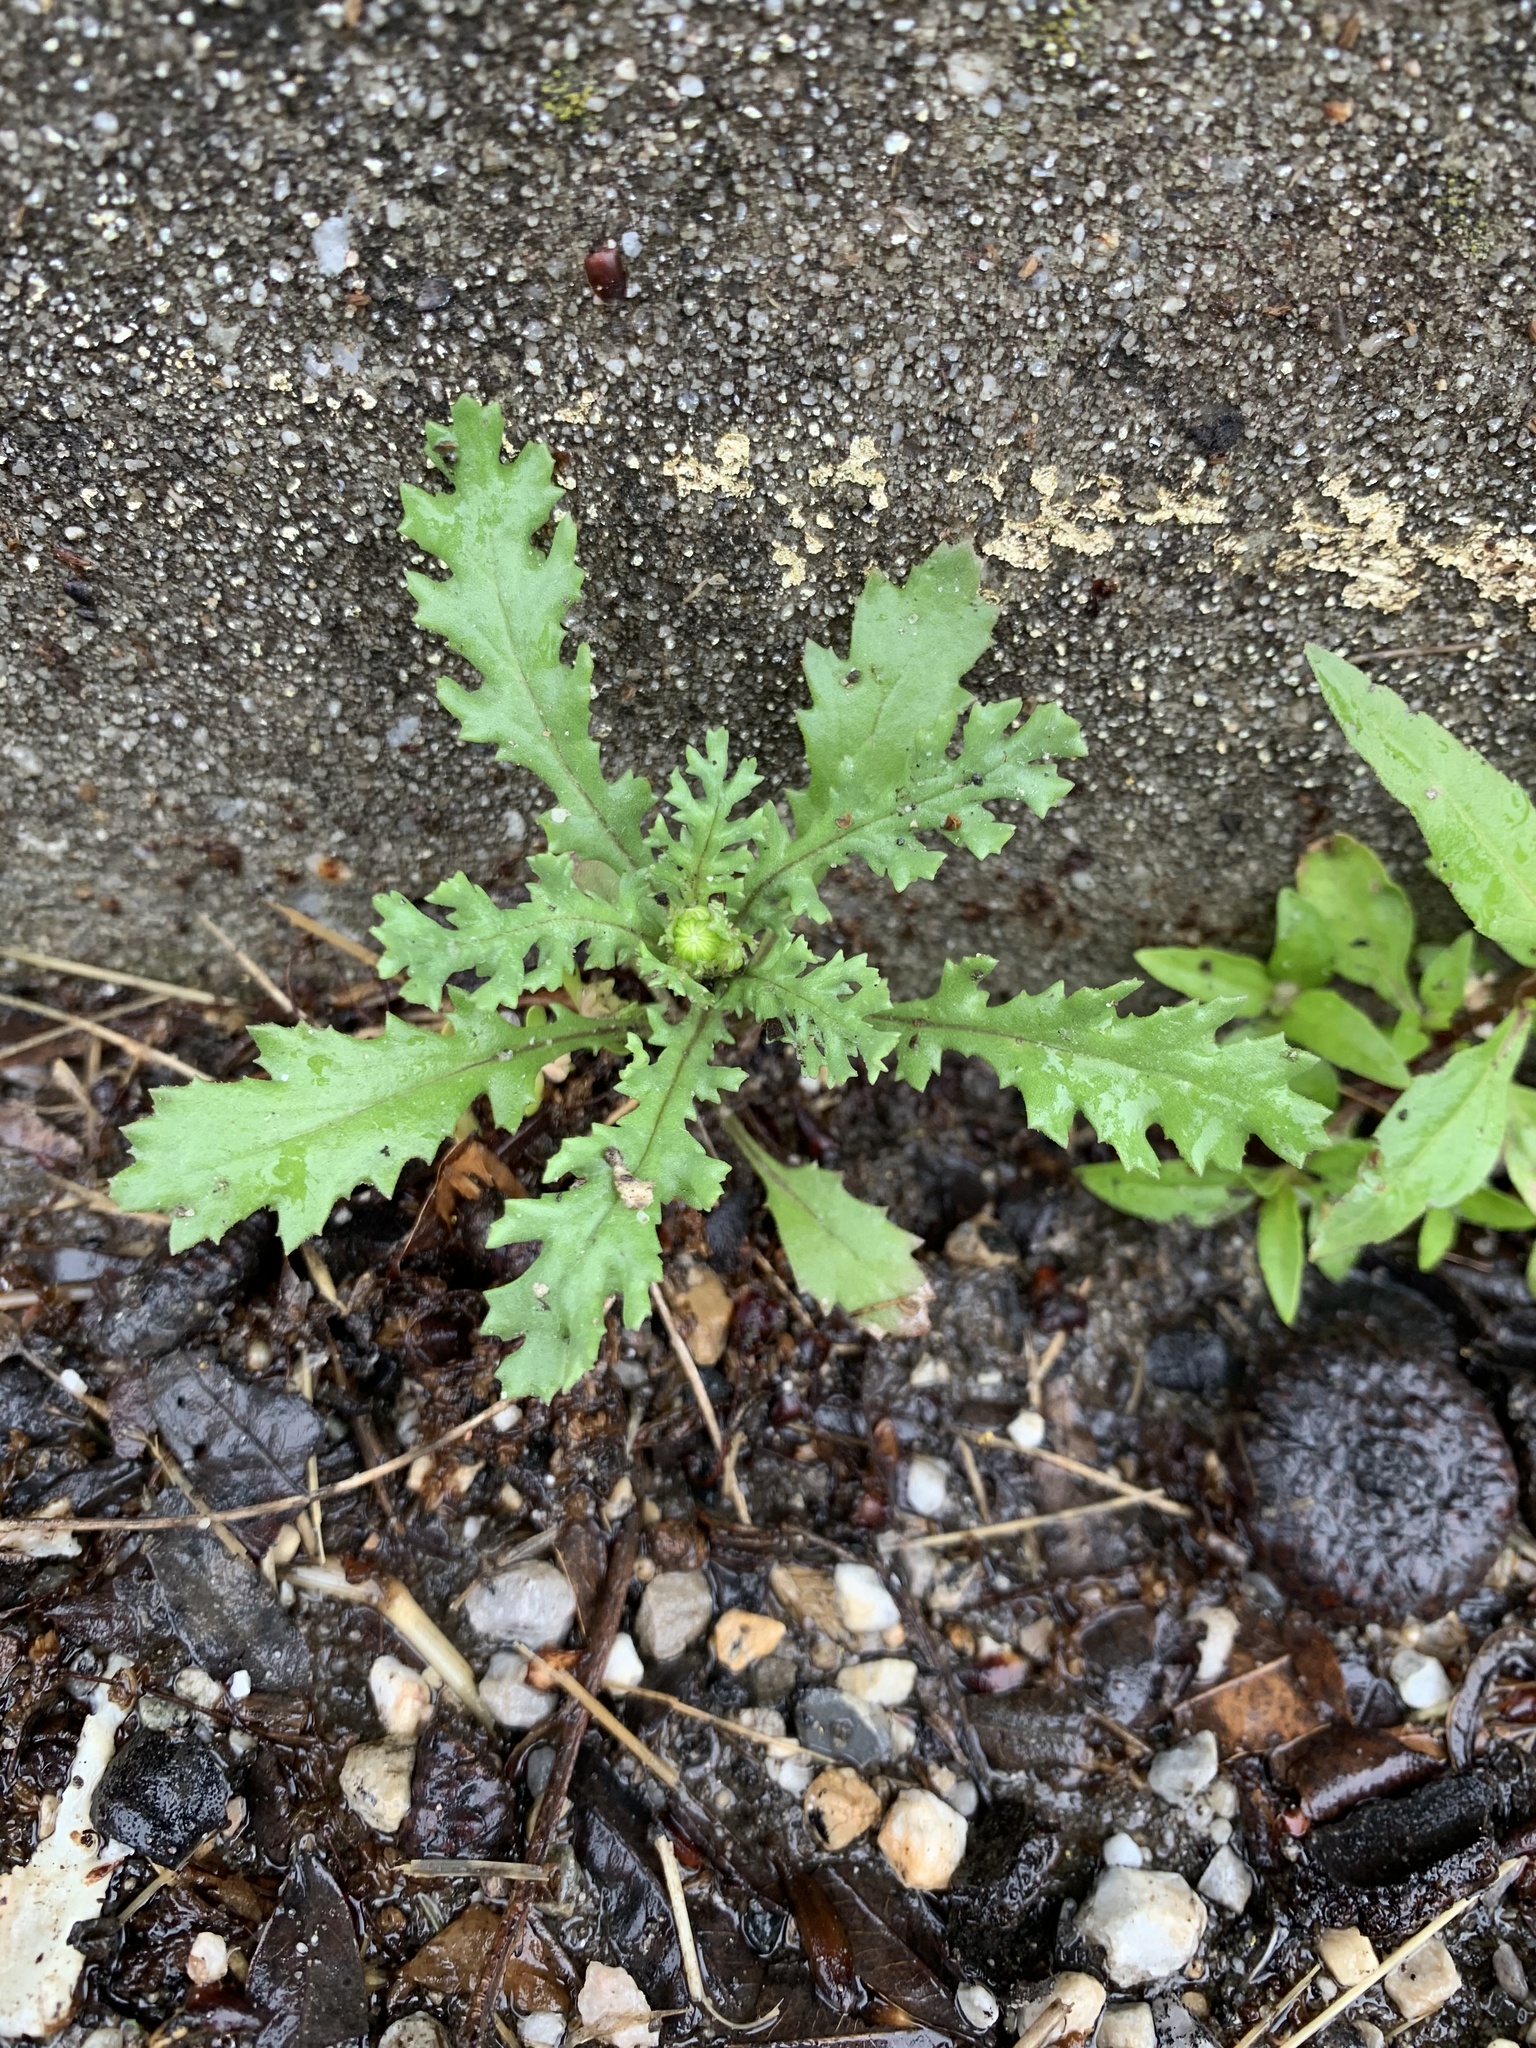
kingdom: Plantae
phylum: Tracheophyta
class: Magnoliopsida
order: Asterales
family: Asteraceae
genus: Senecio
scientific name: Senecio vulgaris
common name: Old-man-in-the-spring
